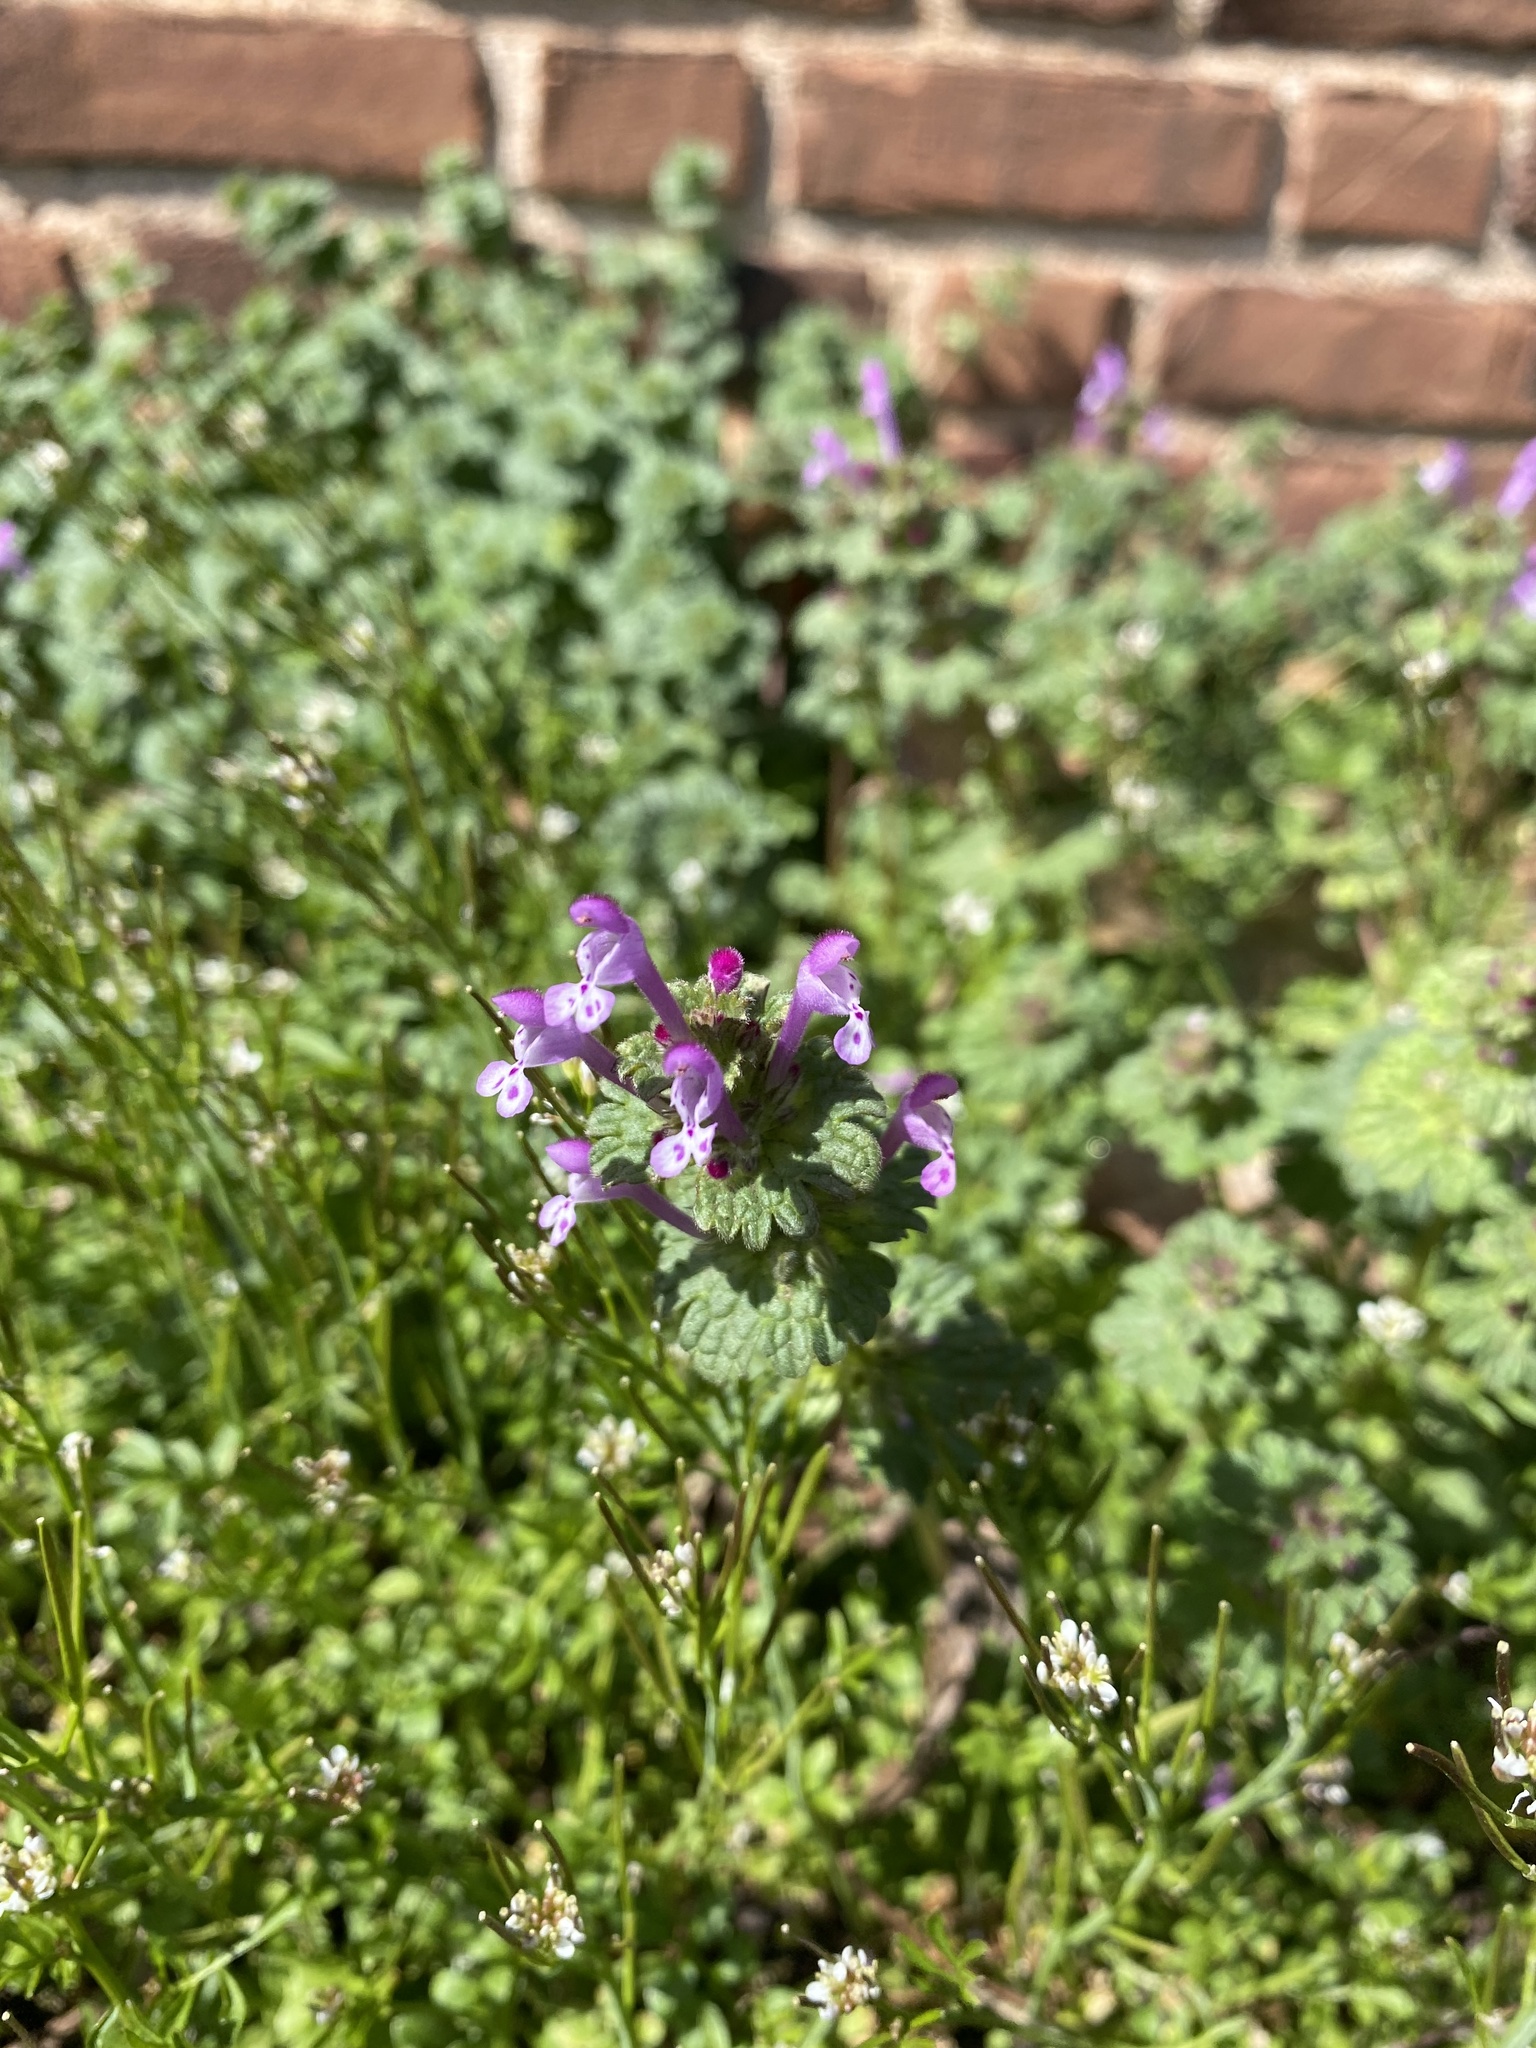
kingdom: Plantae
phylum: Tracheophyta
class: Magnoliopsida
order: Lamiales
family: Lamiaceae
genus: Lamium
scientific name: Lamium amplexicaule
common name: Henbit dead-nettle
